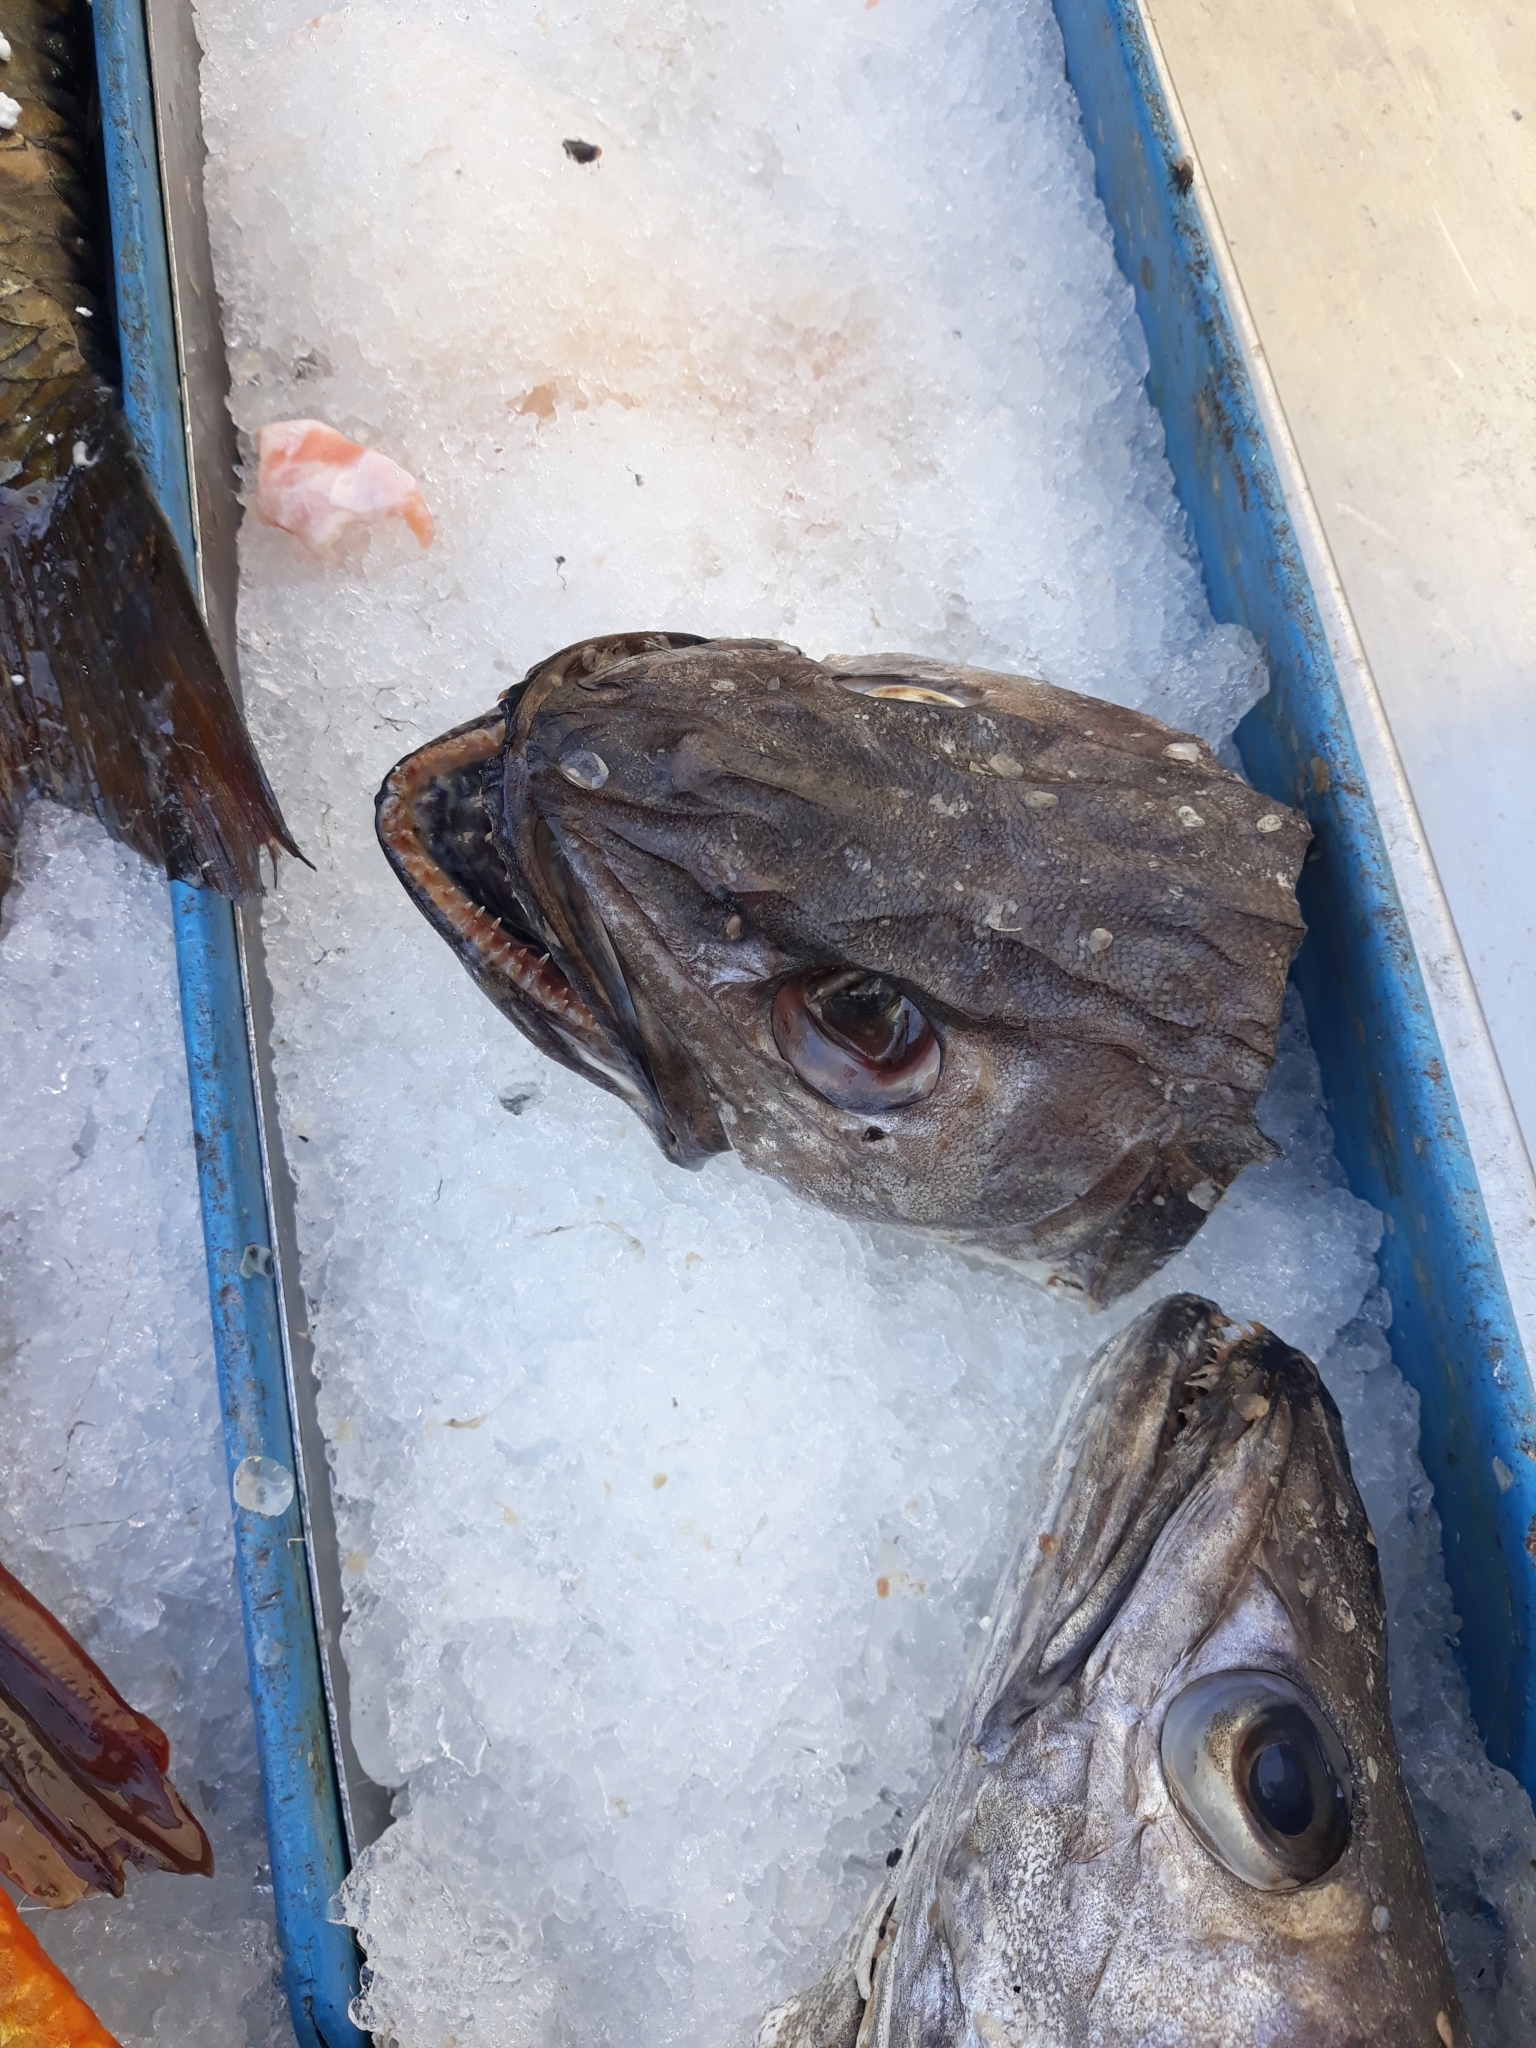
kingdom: Animalia
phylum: Chordata
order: Gadiformes
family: Merlucciidae
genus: Merluccius
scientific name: Merluccius merluccius
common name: European hake
